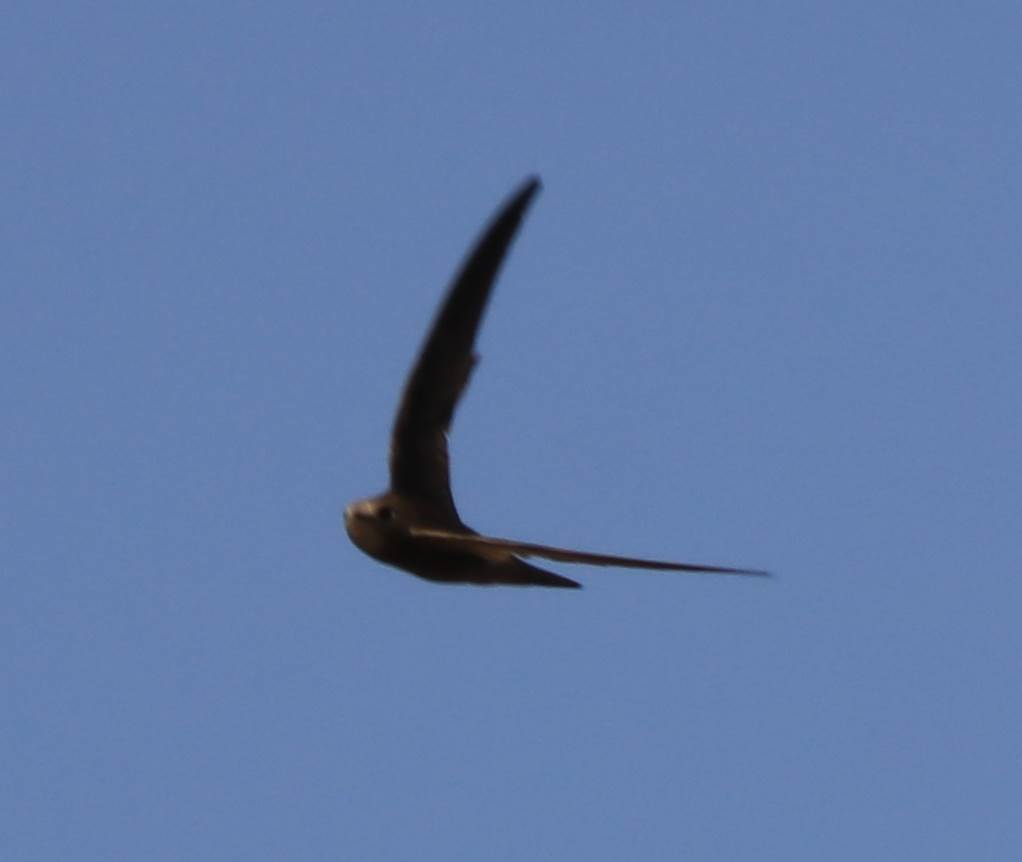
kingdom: Animalia
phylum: Chordata
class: Aves
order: Apodiformes
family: Apodidae
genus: Apus
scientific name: Apus pallidus
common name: Pallid swift
